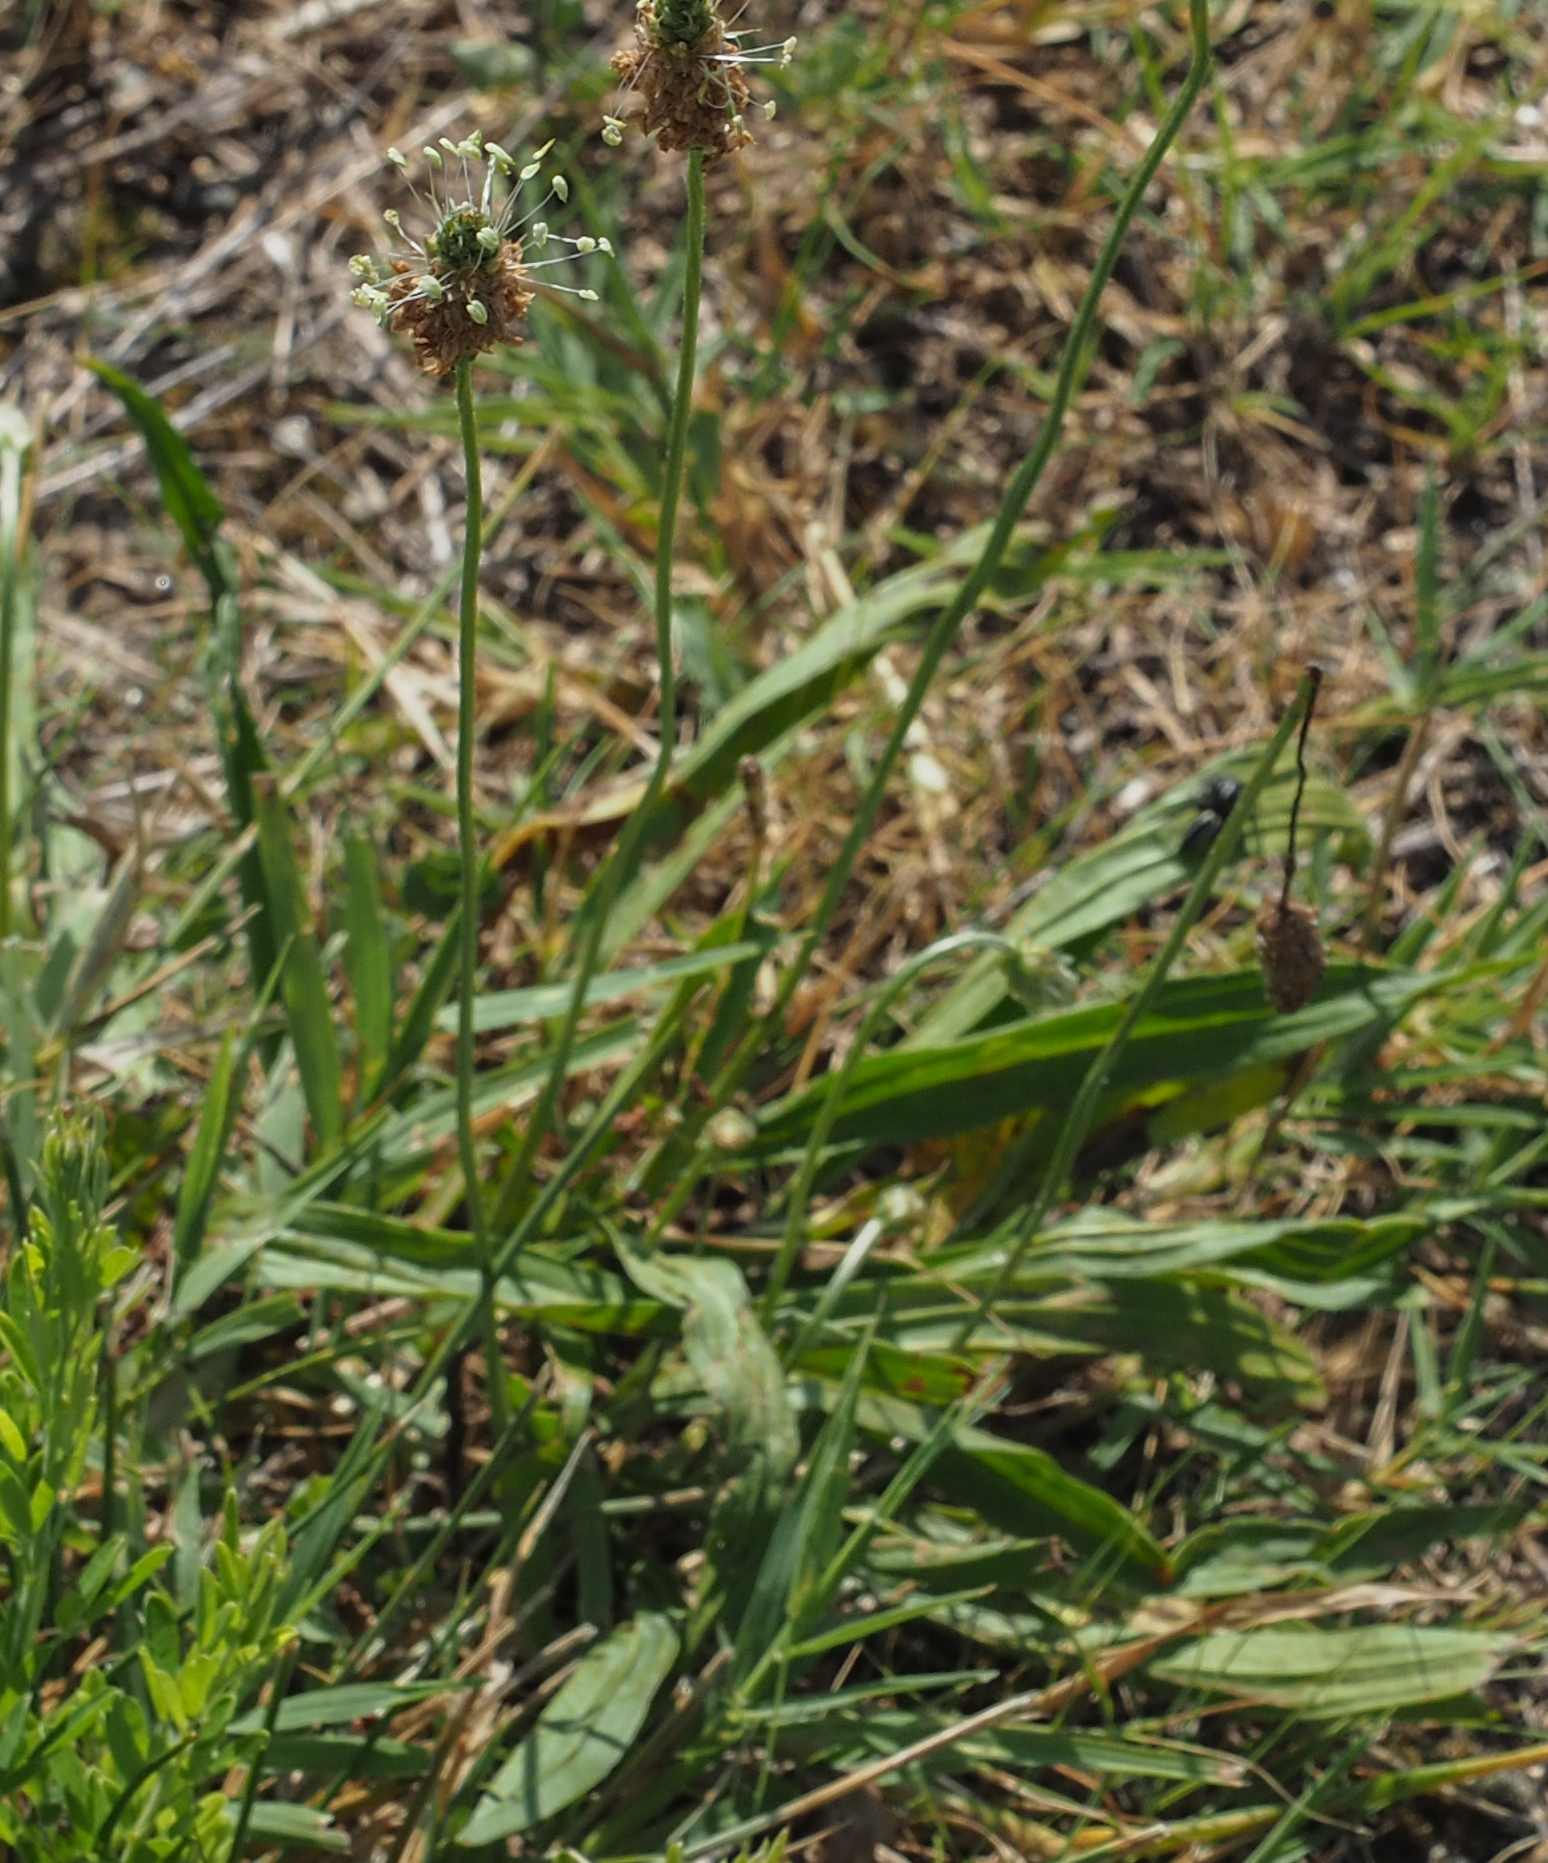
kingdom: Plantae
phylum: Tracheophyta
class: Magnoliopsida
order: Lamiales
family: Plantaginaceae
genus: Plantago
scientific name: Plantago lanceolata
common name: Ribwort plantain
